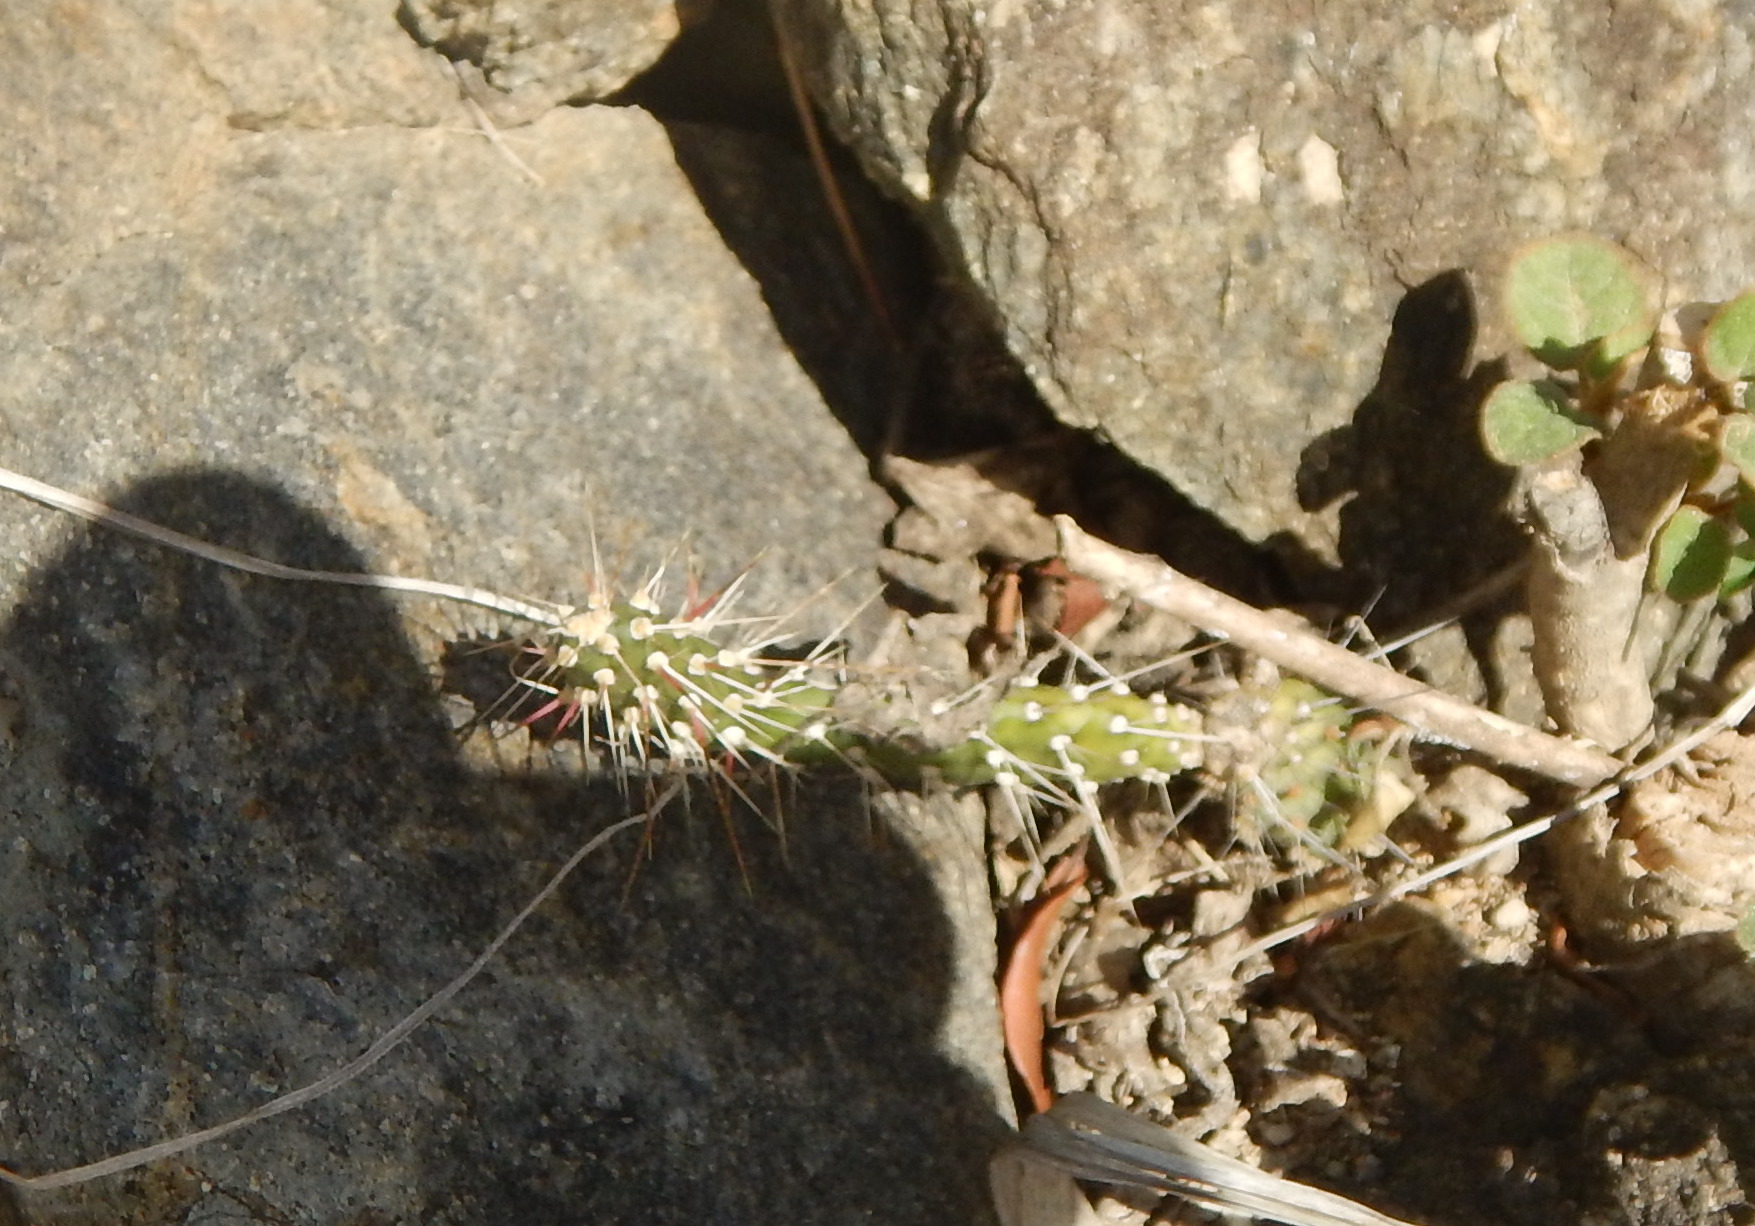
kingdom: Plantae
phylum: Tracheophyta
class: Magnoliopsida
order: Caryophyllales
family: Cactaceae
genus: Opuntia
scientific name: Opuntia repens
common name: Roving pricklypear
